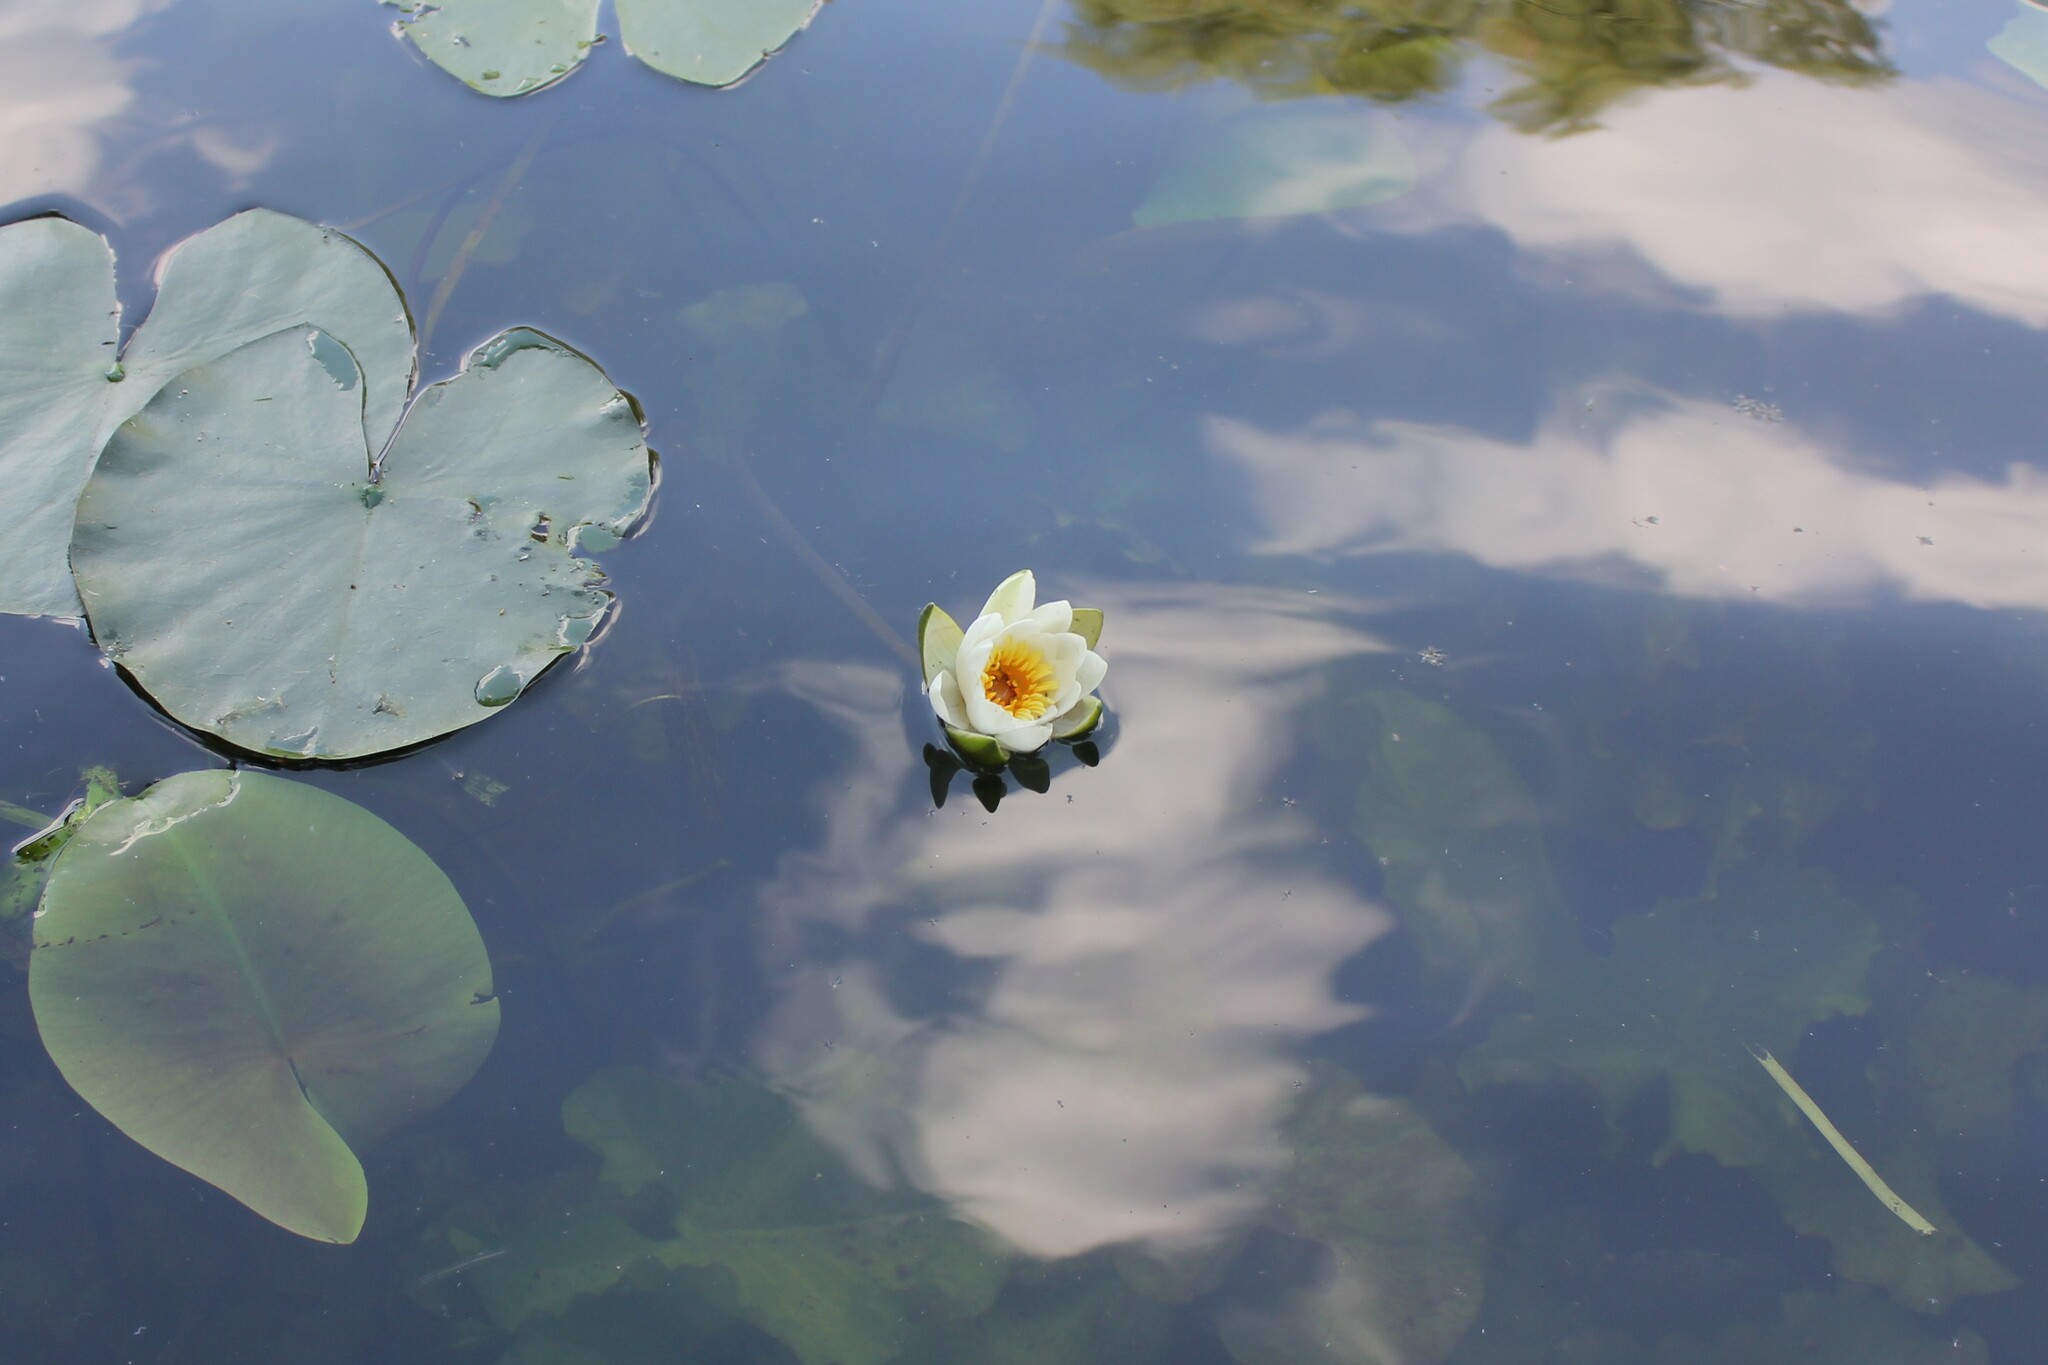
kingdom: Plantae
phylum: Tracheophyta
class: Magnoliopsida
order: Nymphaeales
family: Nymphaeaceae
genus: Nymphaea
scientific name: Nymphaea candida
